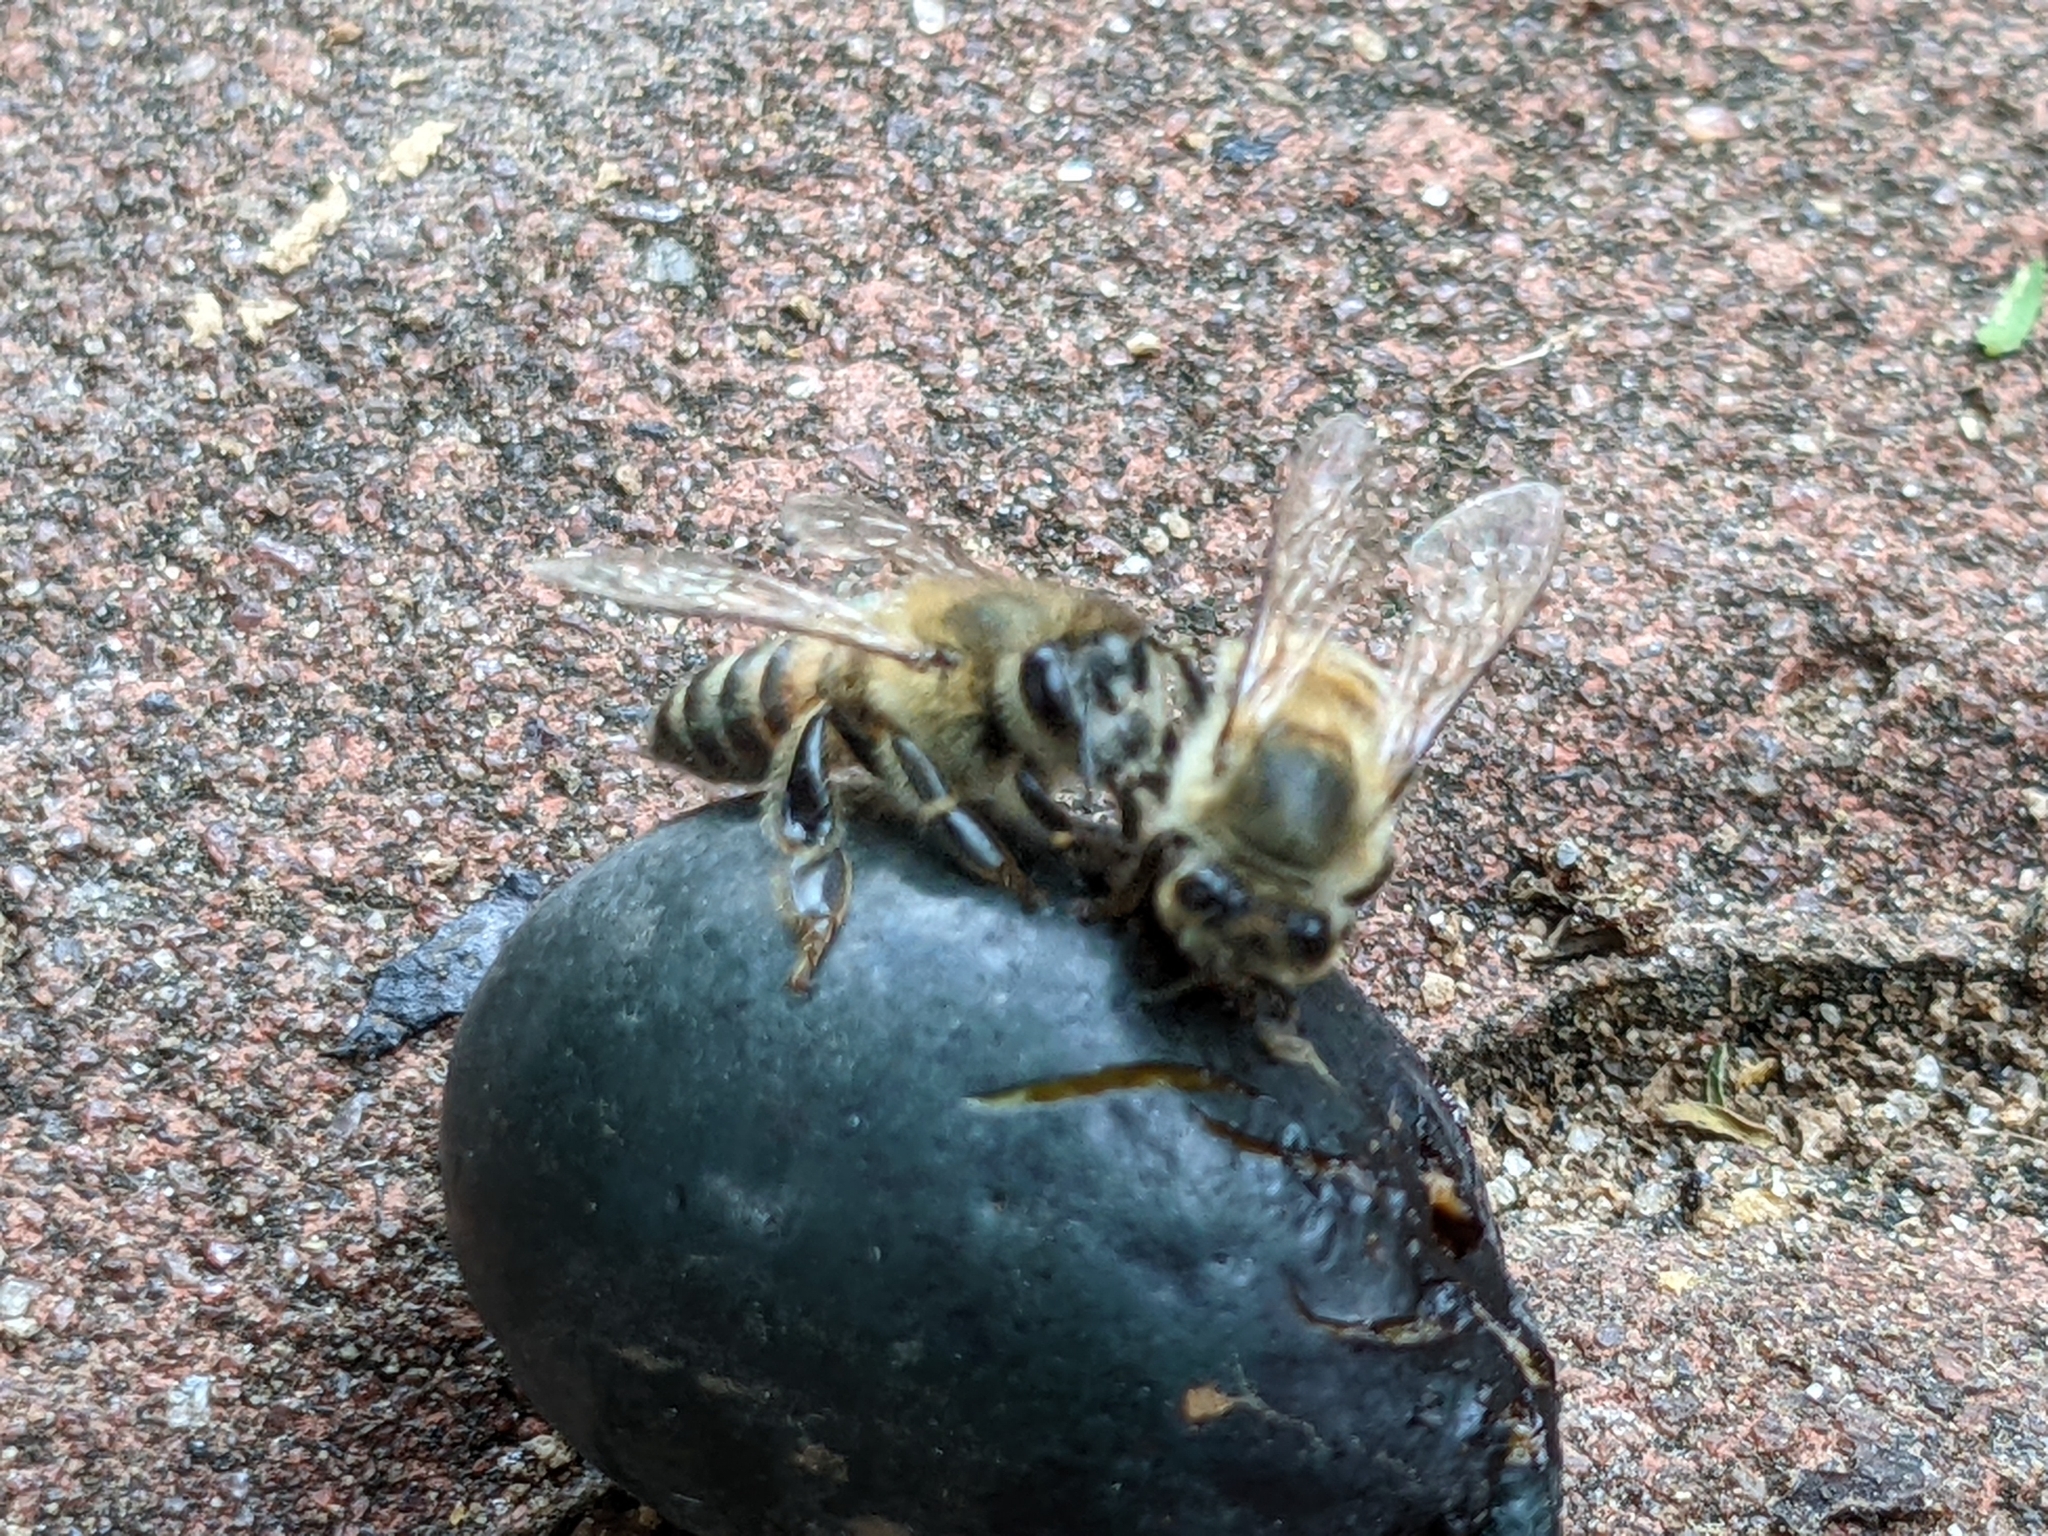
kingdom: Animalia
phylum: Arthropoda
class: Insecta
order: Hymenoptera
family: Apidae
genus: Apis
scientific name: Apis mellifera
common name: Honey bee
